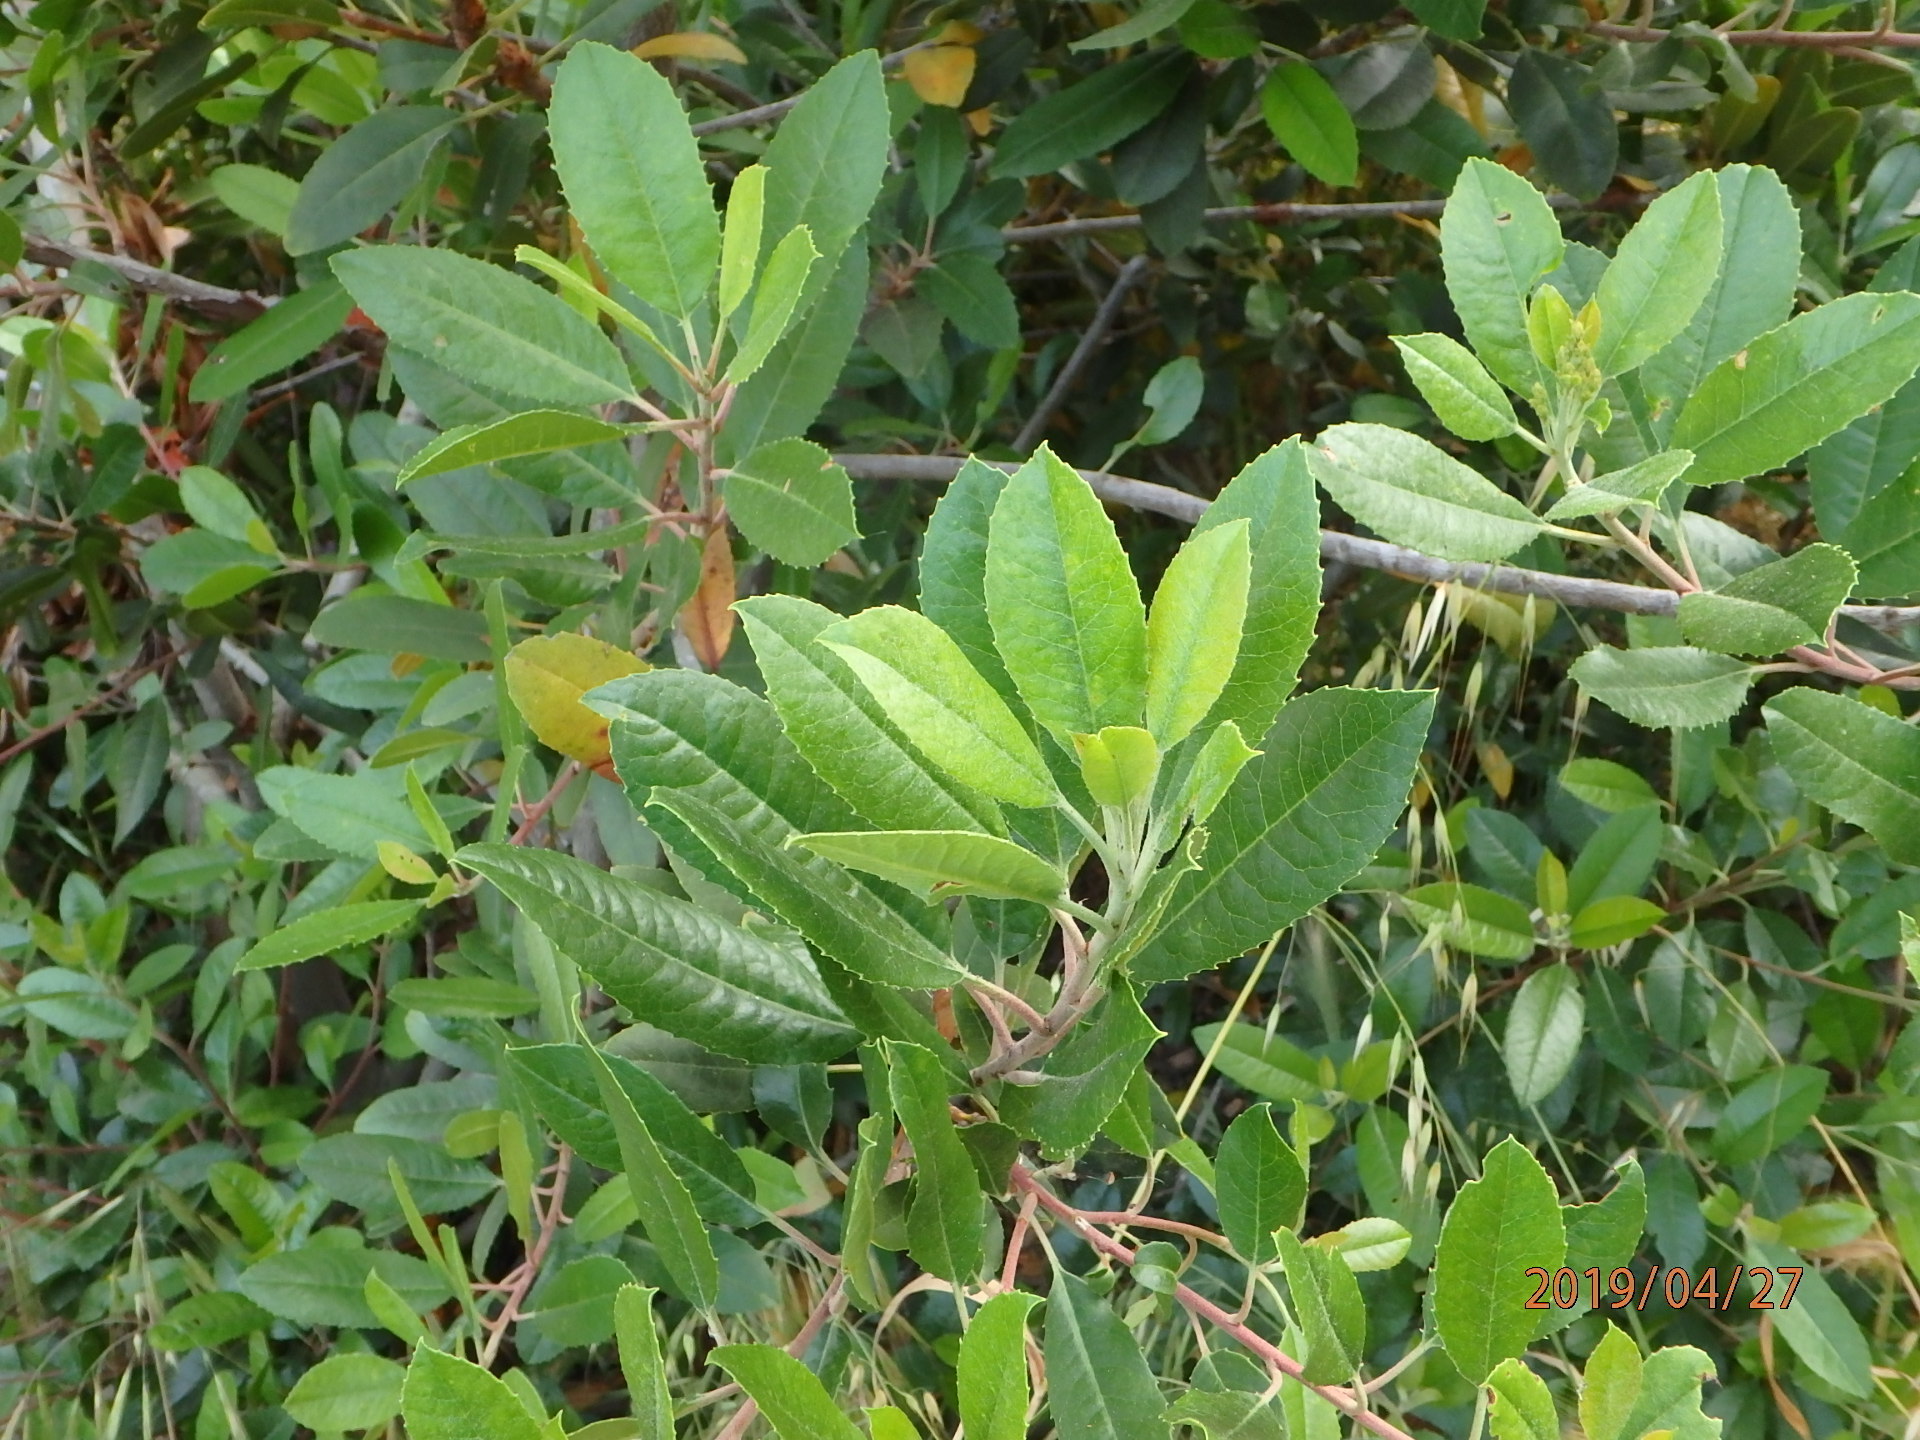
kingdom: Plantae
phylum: Tracheophyta
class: Magnoliopsida
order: Rosales
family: Rosaceae
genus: Heteromeles
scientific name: Heteromeles arbutifolia
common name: California-holly
